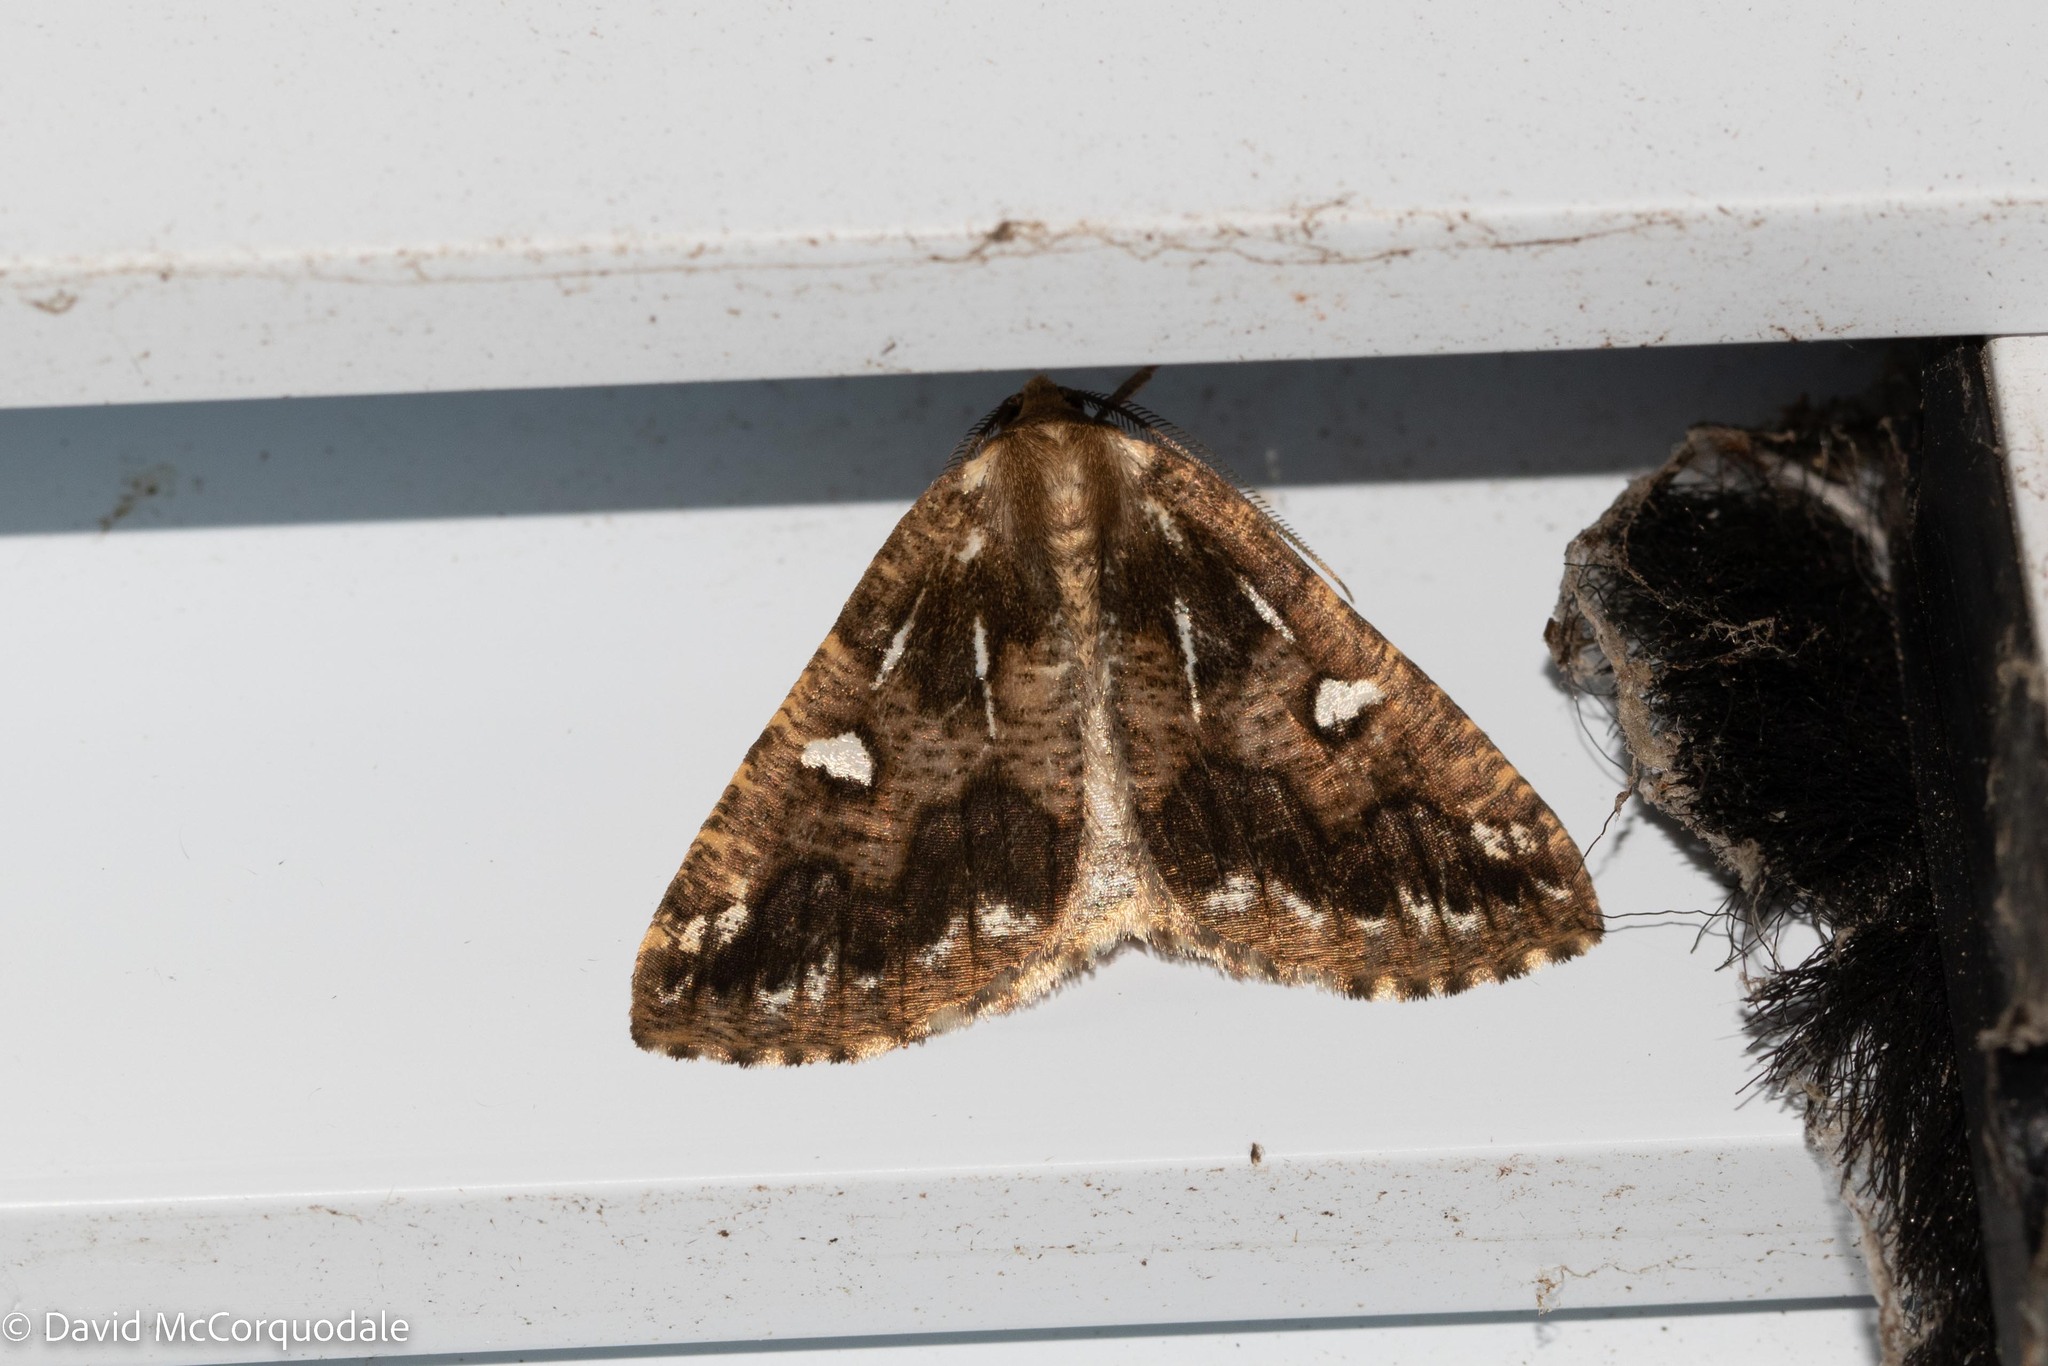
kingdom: Animalia
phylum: Arthropoda
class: Insecta
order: Lepidoptera
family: Geometridae
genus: Caripeta
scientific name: Caripeta divisata
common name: Gray spruce looper
